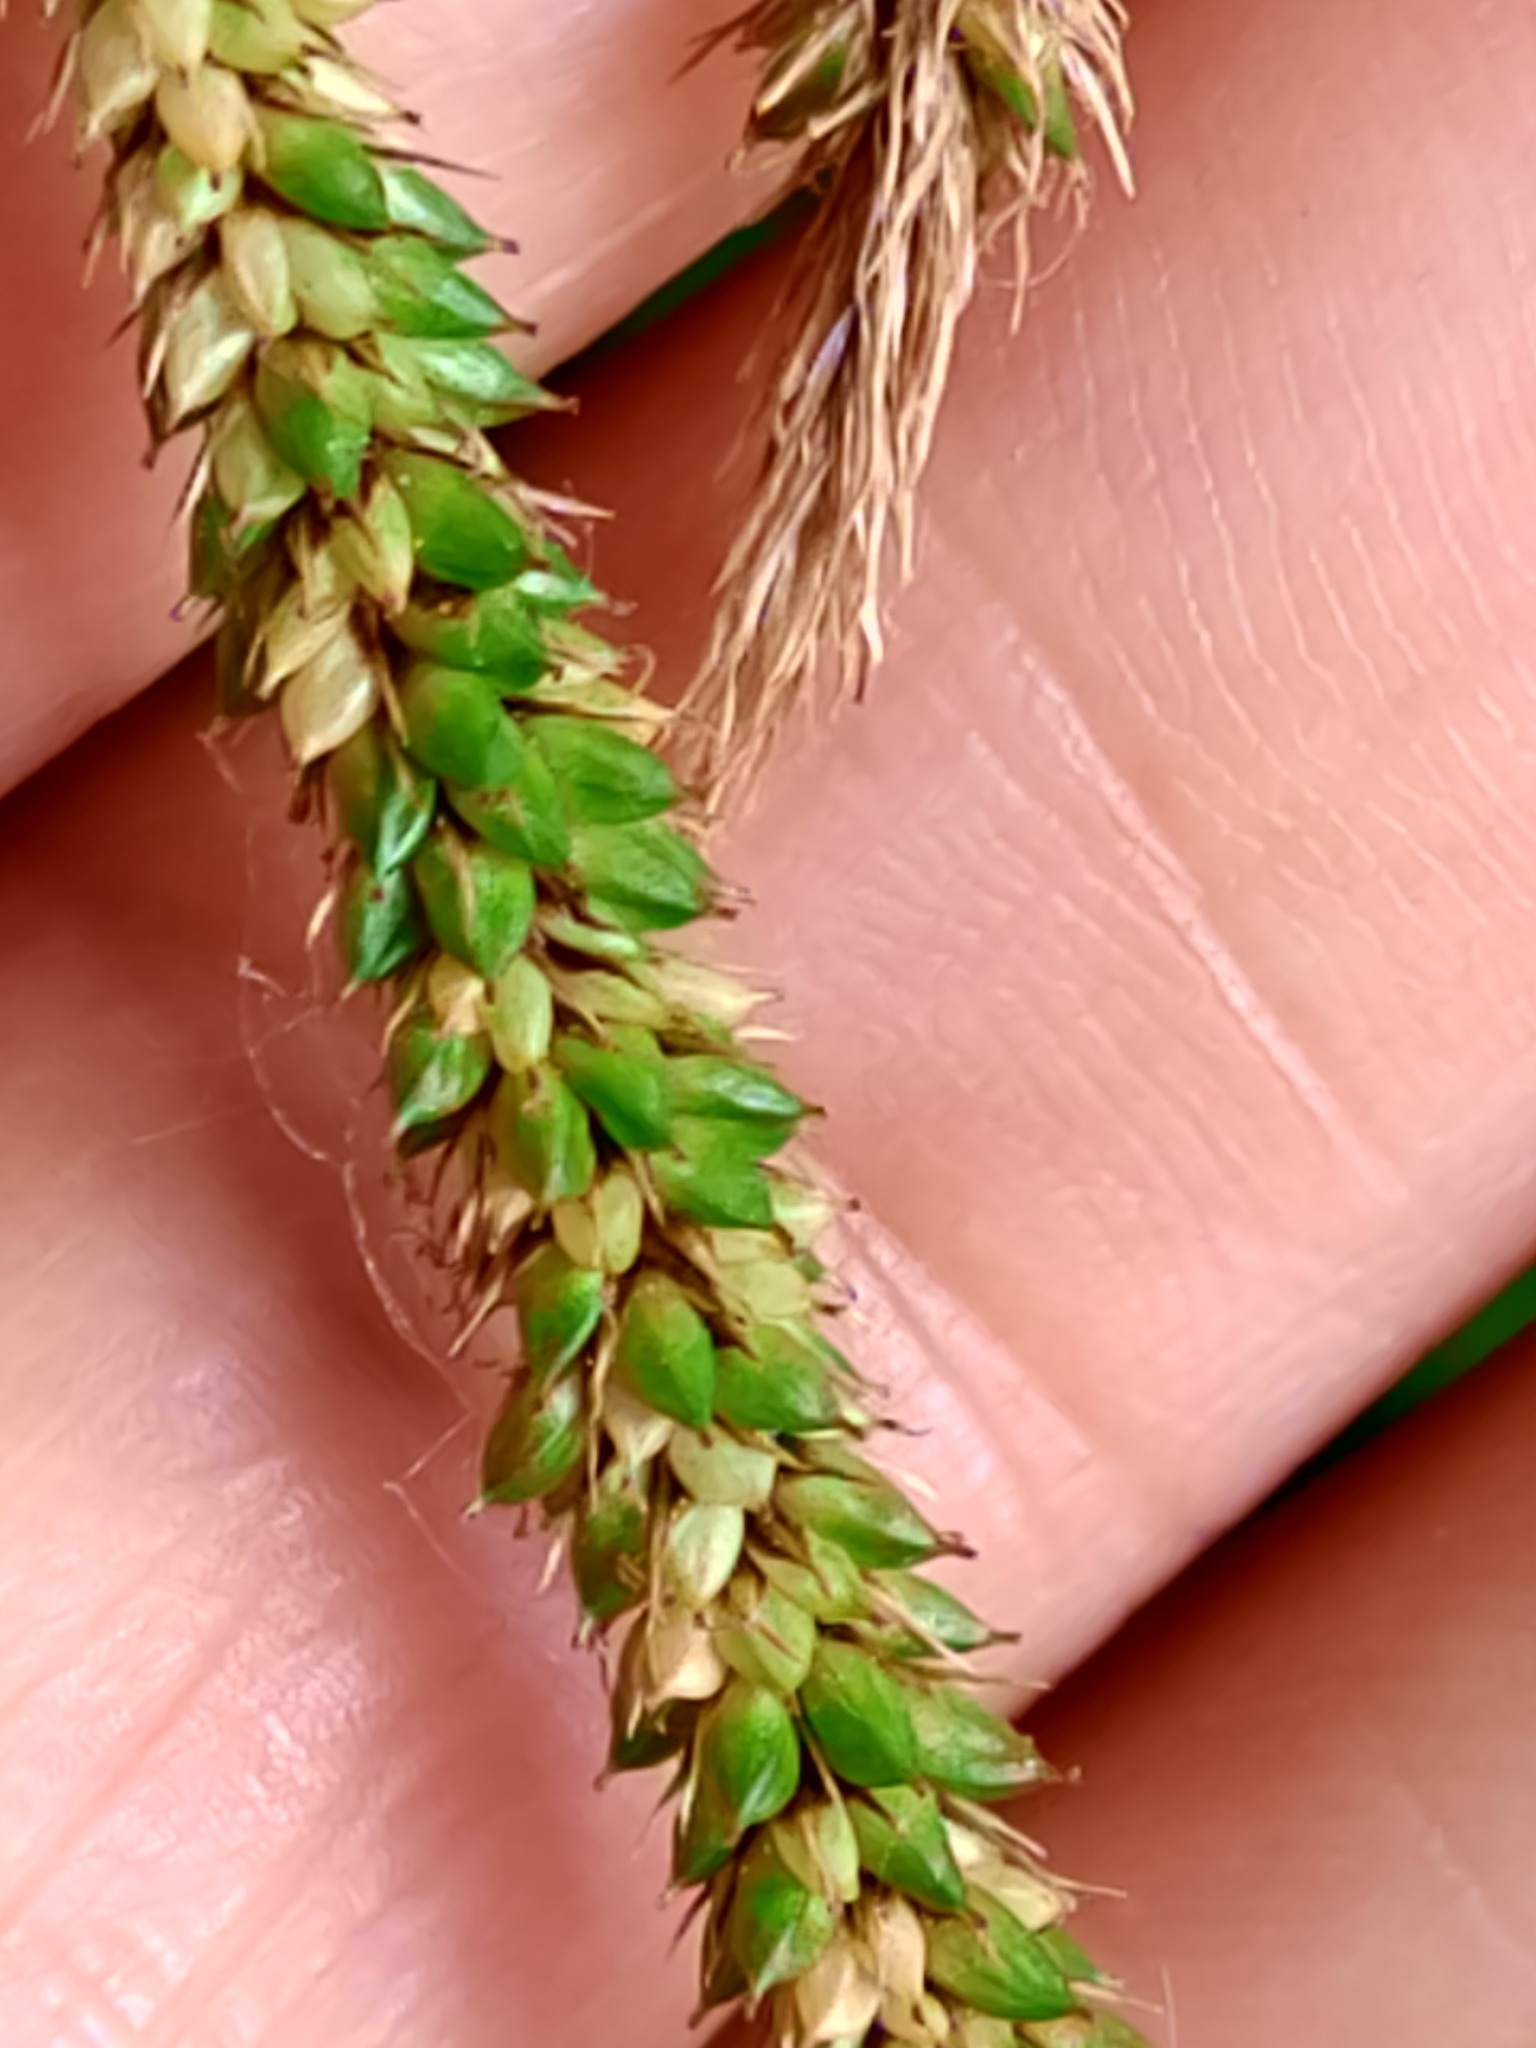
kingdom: Plantae
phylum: Tracheophyta
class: Liliopsida
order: Poales
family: Cyperaceae
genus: Carex
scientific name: Carex pendula
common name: Pendulous sedge
